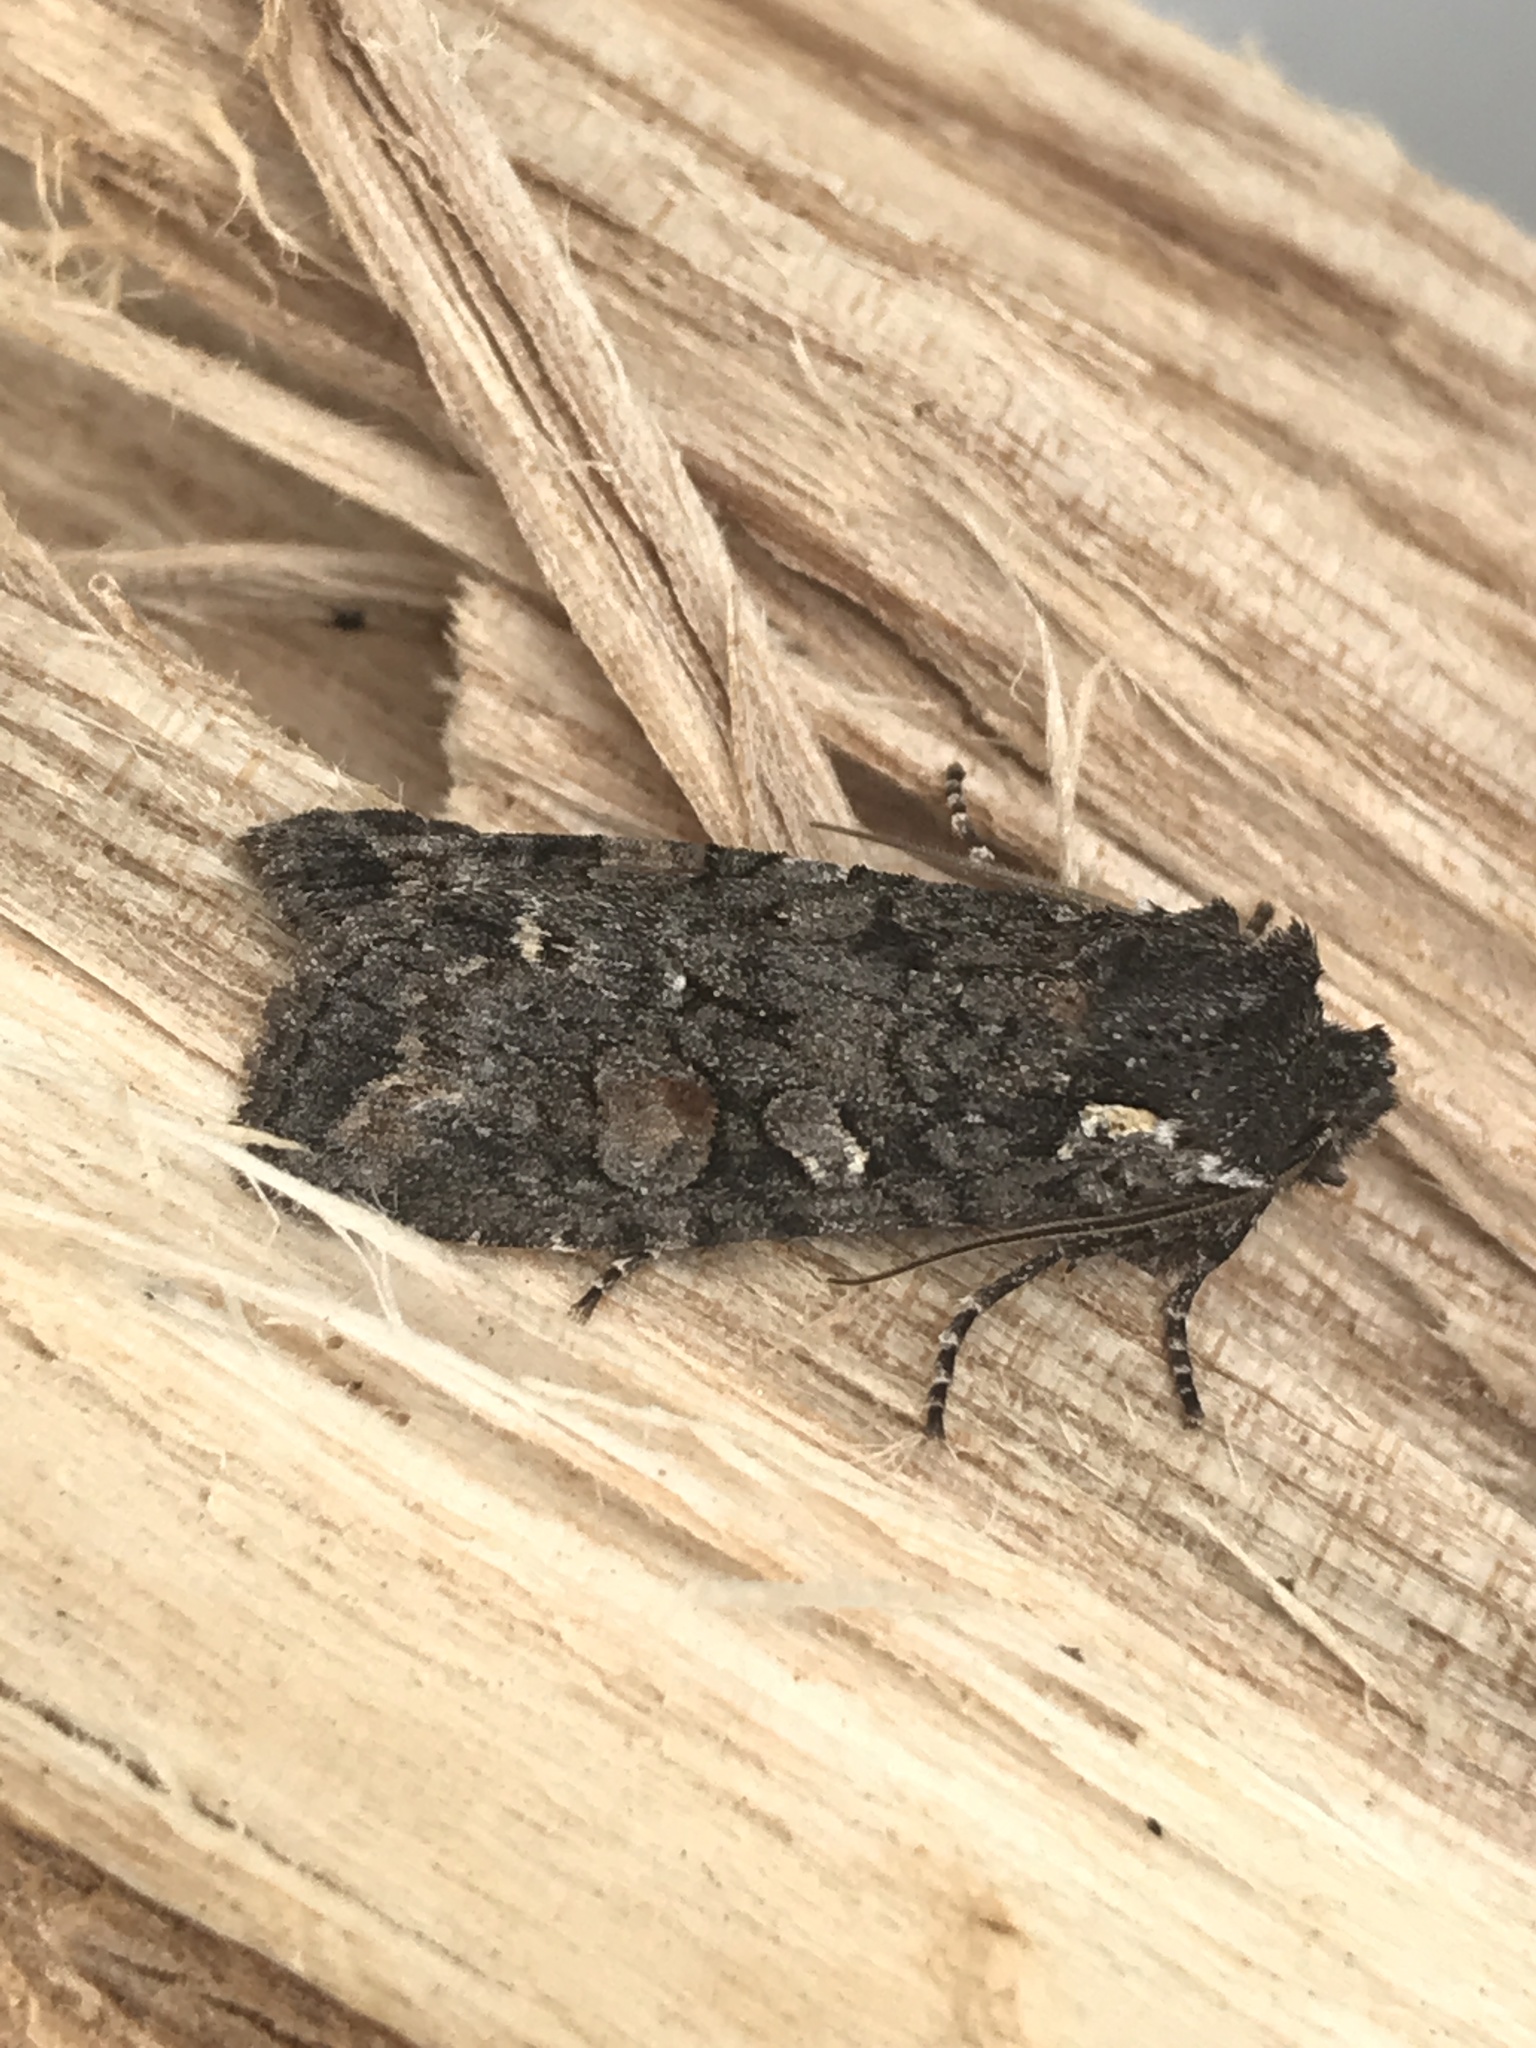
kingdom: Animalia
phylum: Arthropoda
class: Insecta
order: Lepidoptera
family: Noctuidae
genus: Lithophane
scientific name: Lithophane pexata
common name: Plush-naped pinion moth
